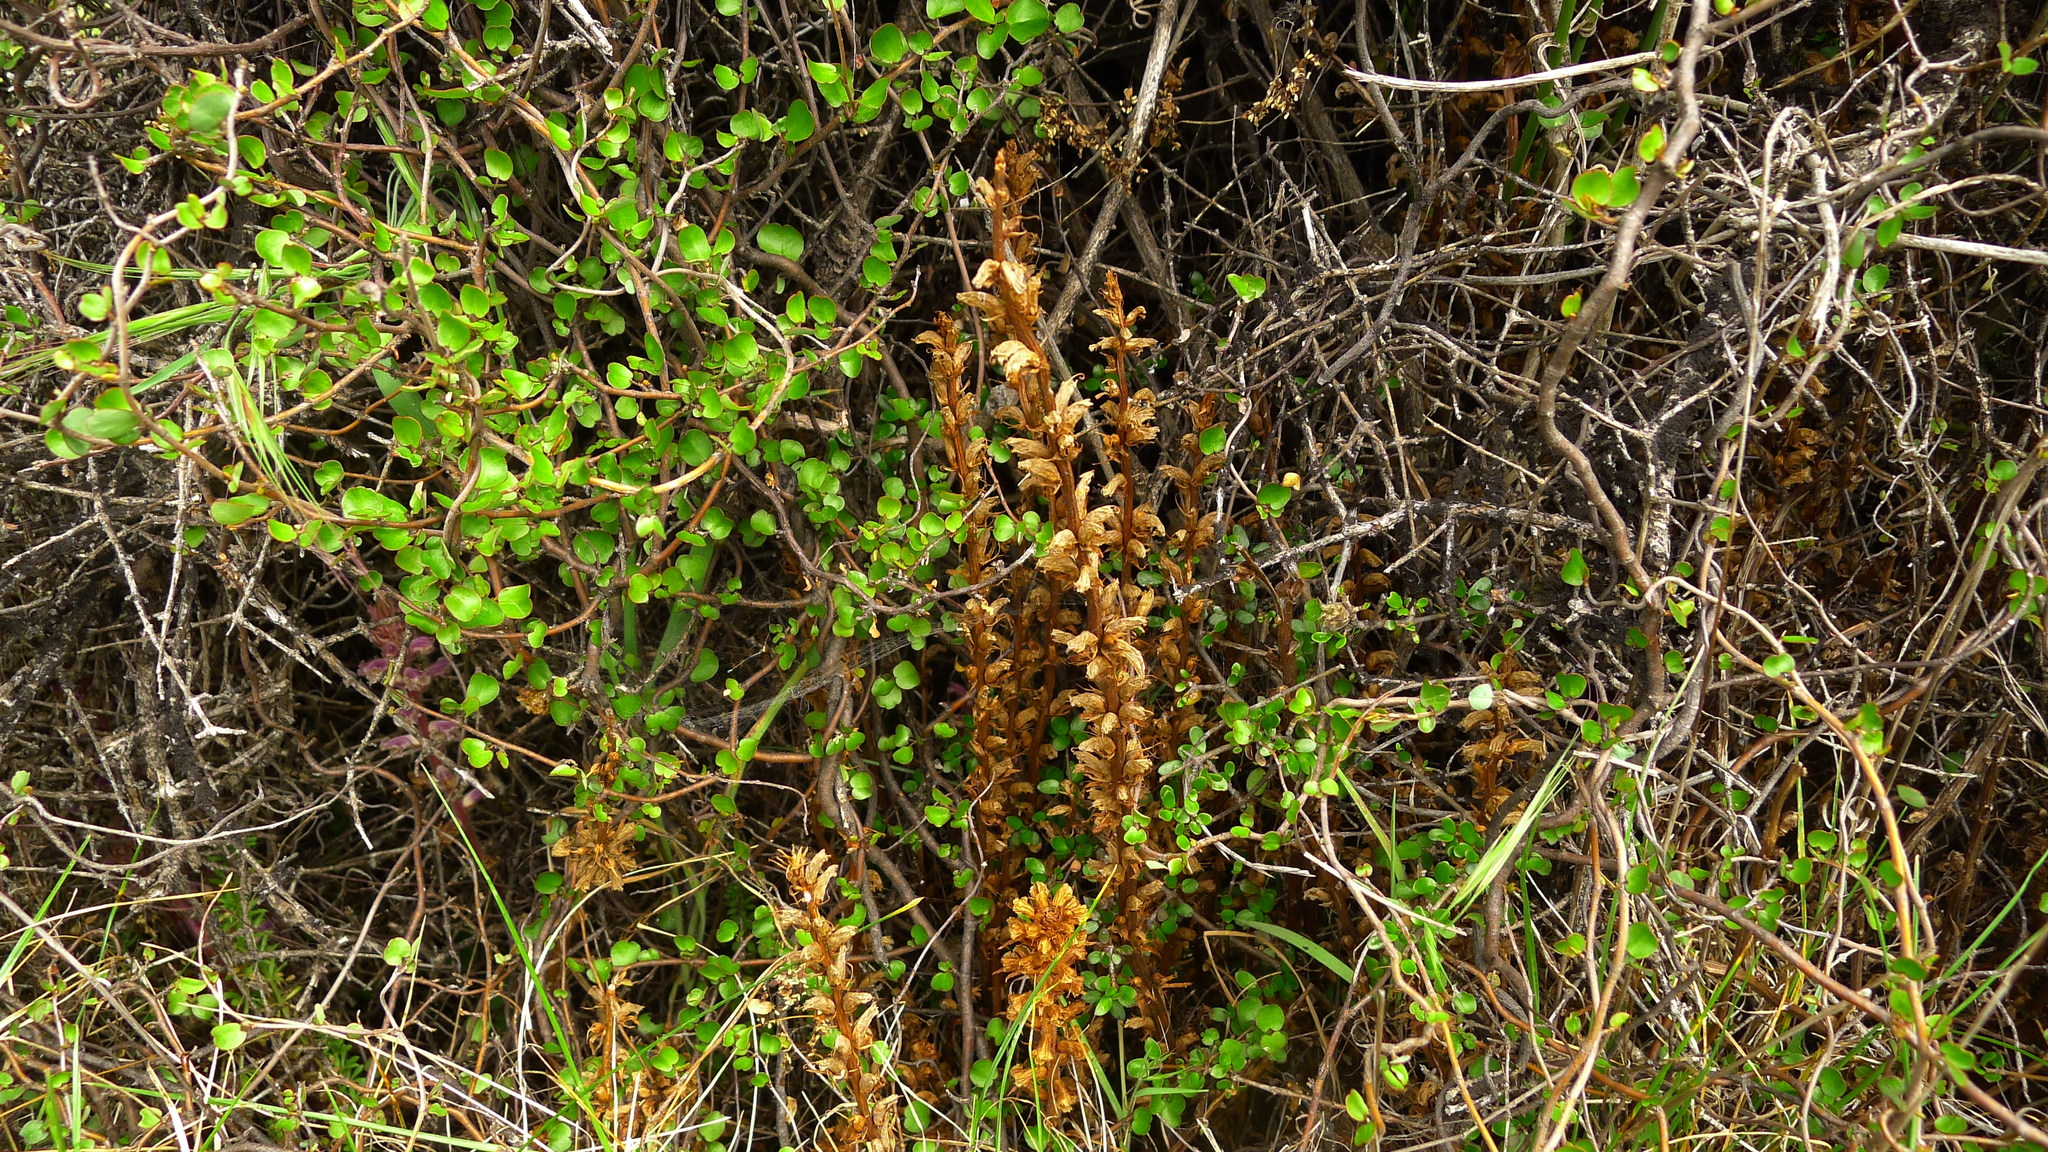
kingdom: Plantae
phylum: Tracheophyta
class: Magnoliopsida
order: Lamiales
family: Orobanchaceae
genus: Orobanche
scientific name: Orobanche minor
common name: Common broomrape
